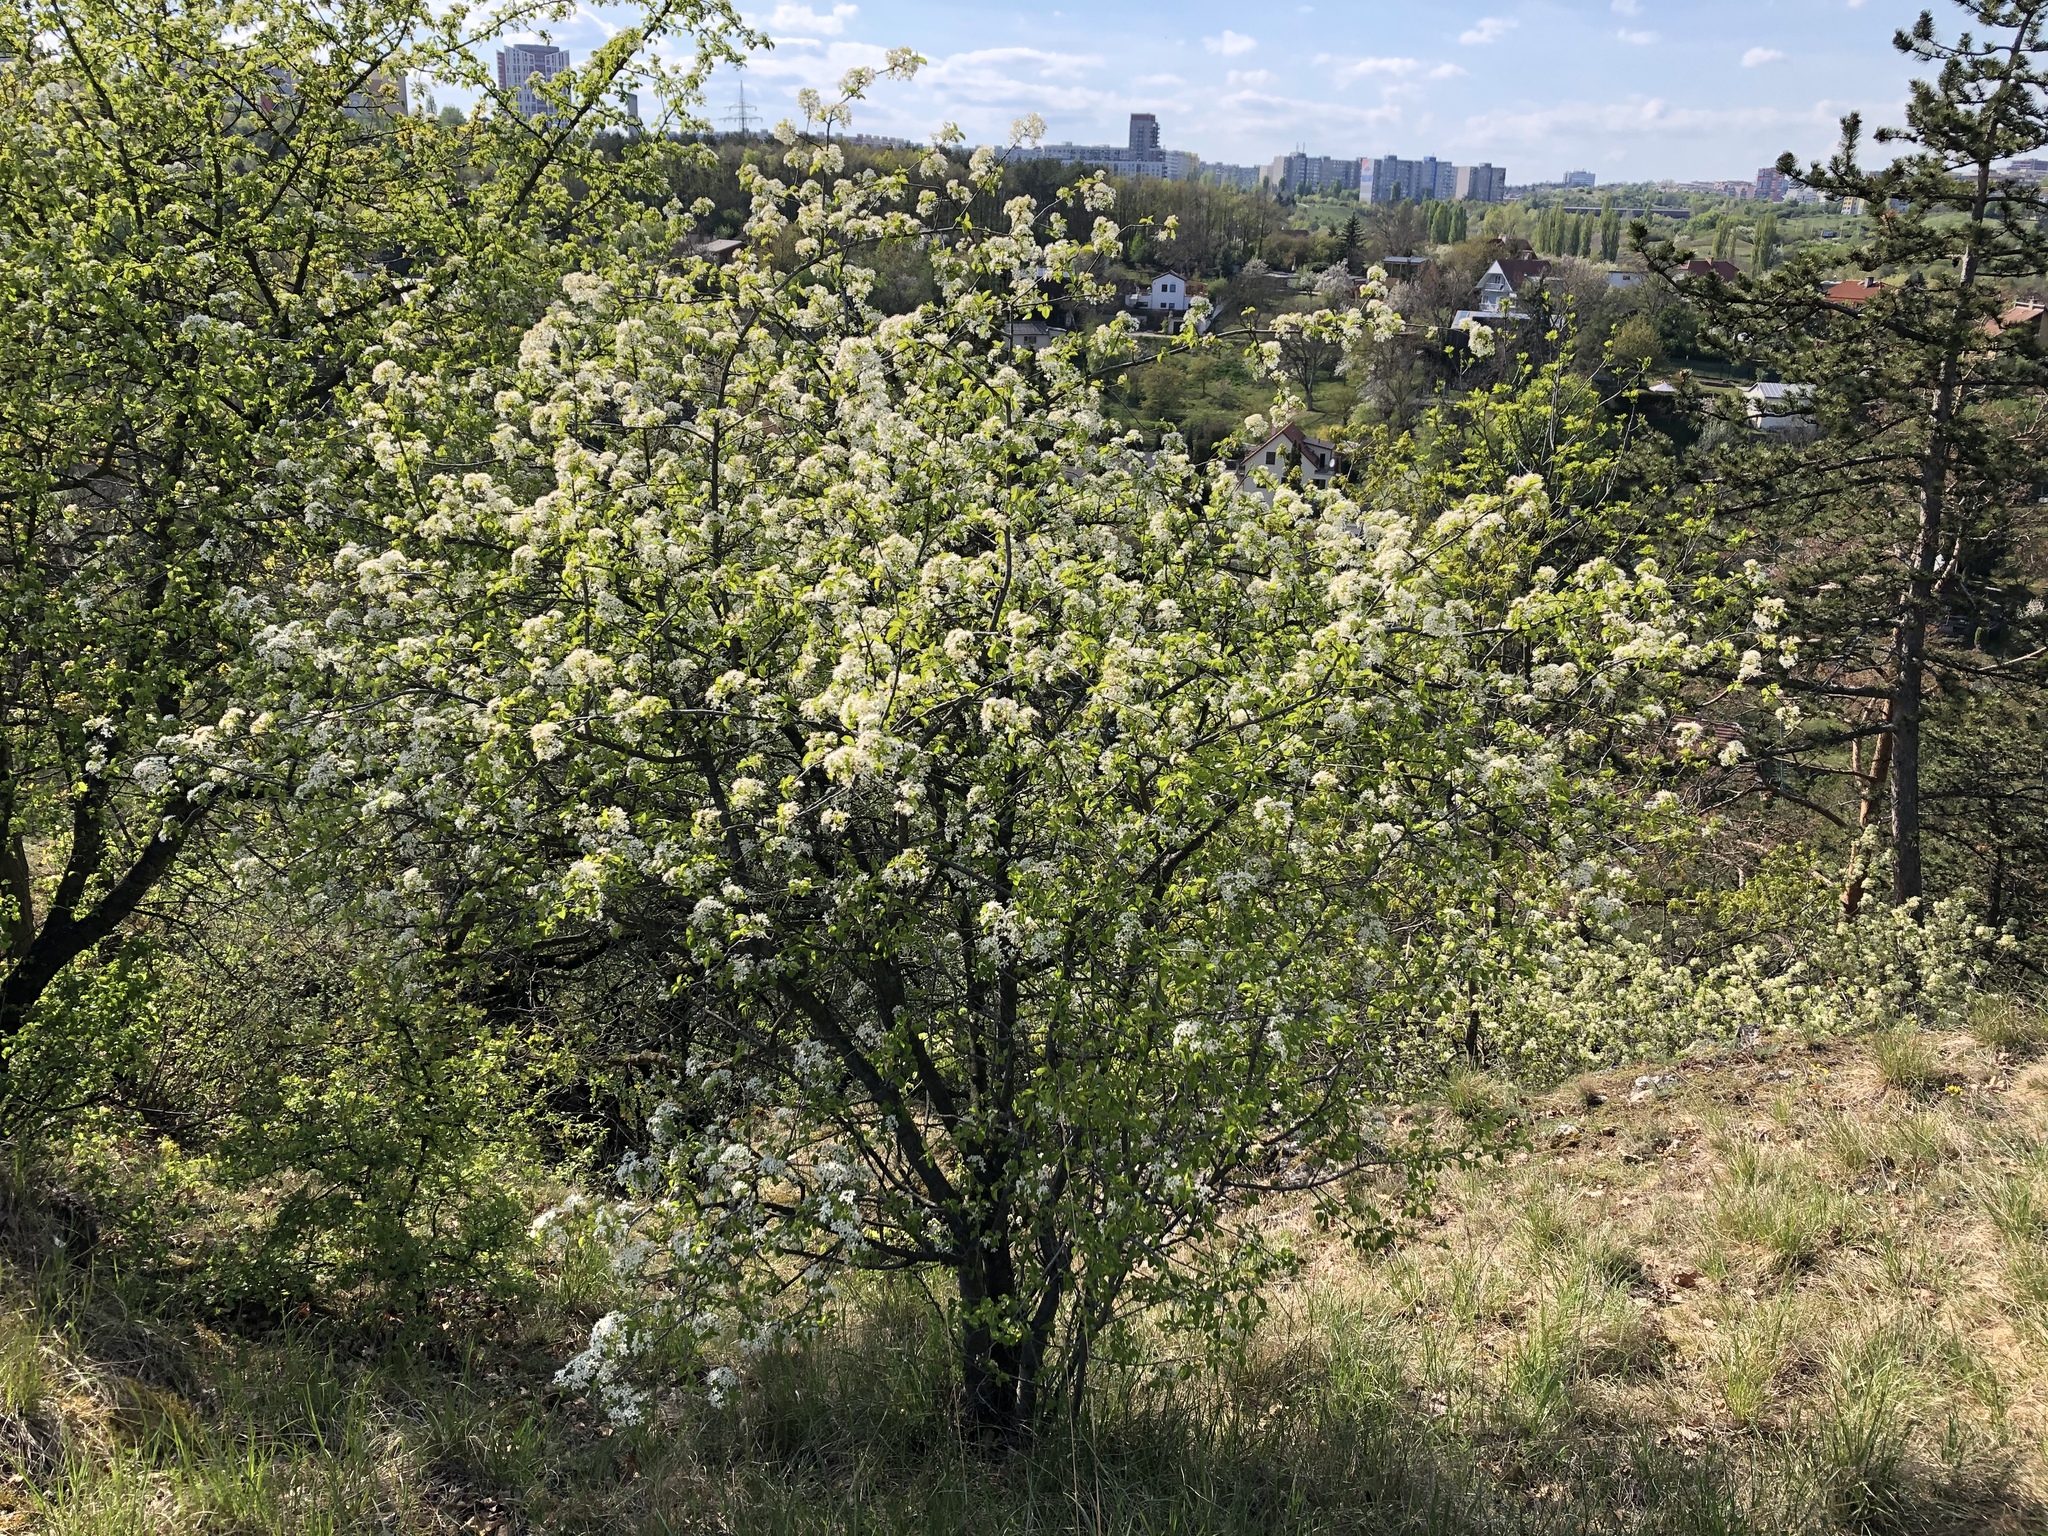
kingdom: Plantae
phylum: Tracheophyta
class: Magnoliopsida
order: Rosales
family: Rosaceae
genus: Prunus
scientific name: Prunus mahaleb
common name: Mahaleb cherry
